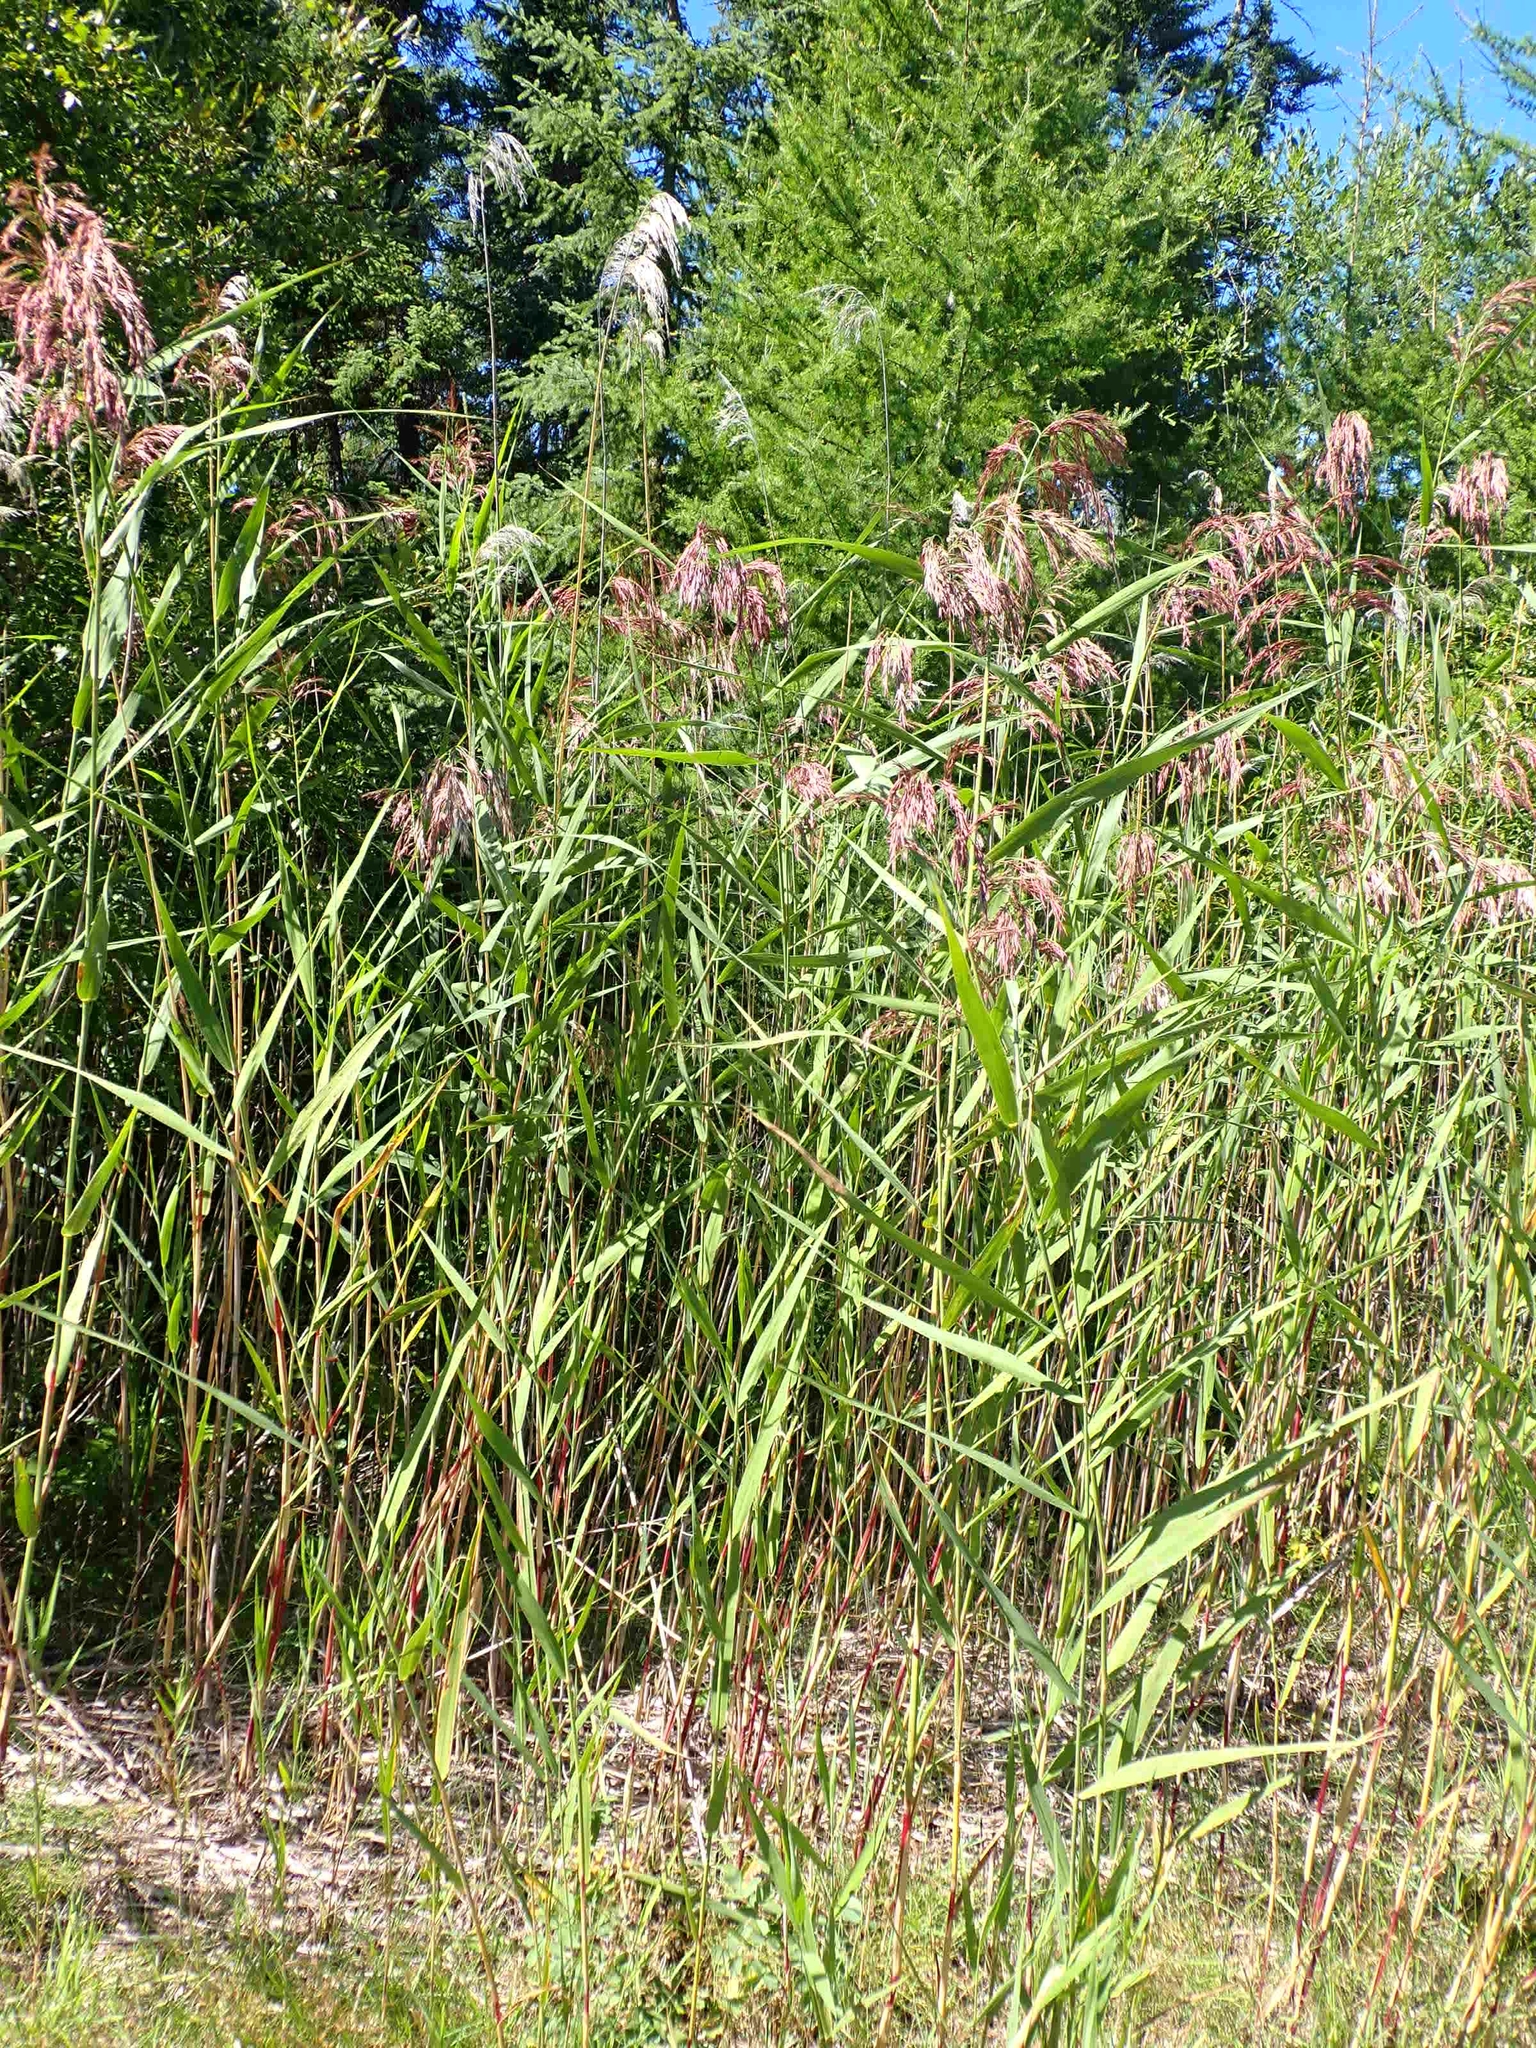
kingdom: Plantae
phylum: Tracheophyta
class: Liliopsida
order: Poales
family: Poaceae
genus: Phragmites
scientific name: Phragmites australis
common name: Common reed
